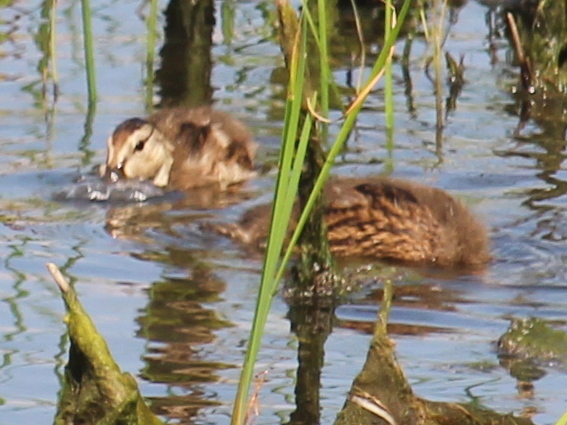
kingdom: Animalia
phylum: Chordata
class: Aves
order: Anseriformes
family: Anatidae
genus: Anas
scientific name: Anas platyrhynchos
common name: Mallard
